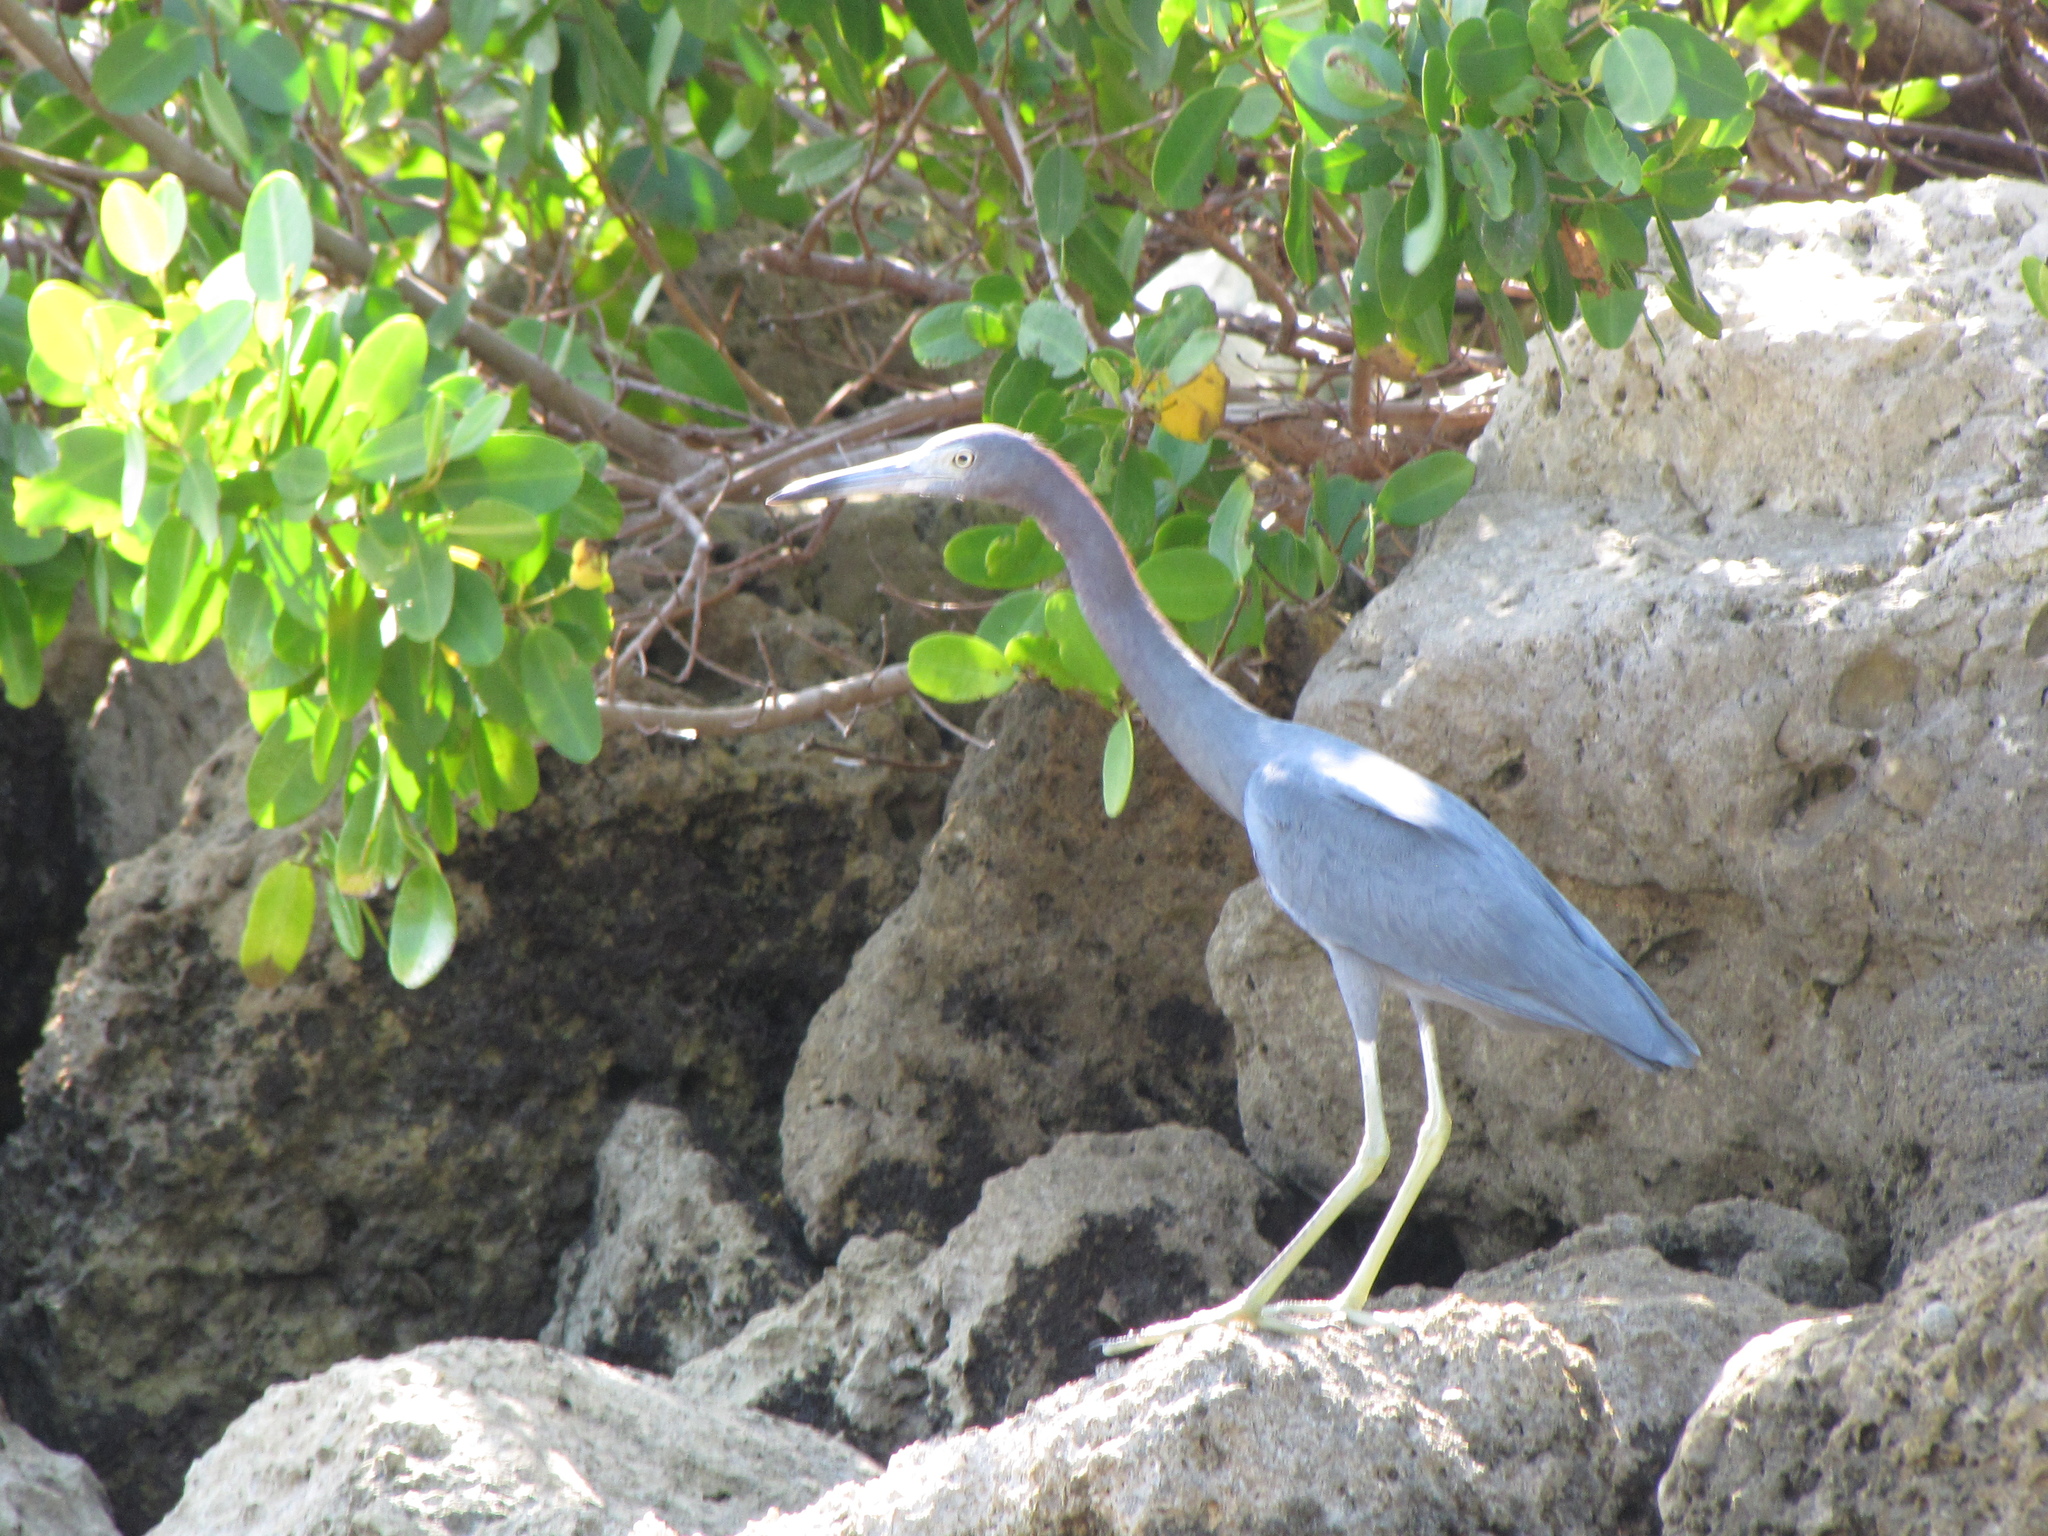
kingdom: Animalia
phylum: Chordata
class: Aves
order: Pelecaniformes
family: Ardeidae
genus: Egretta
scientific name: Egretta caerulea
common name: Little blue heron
